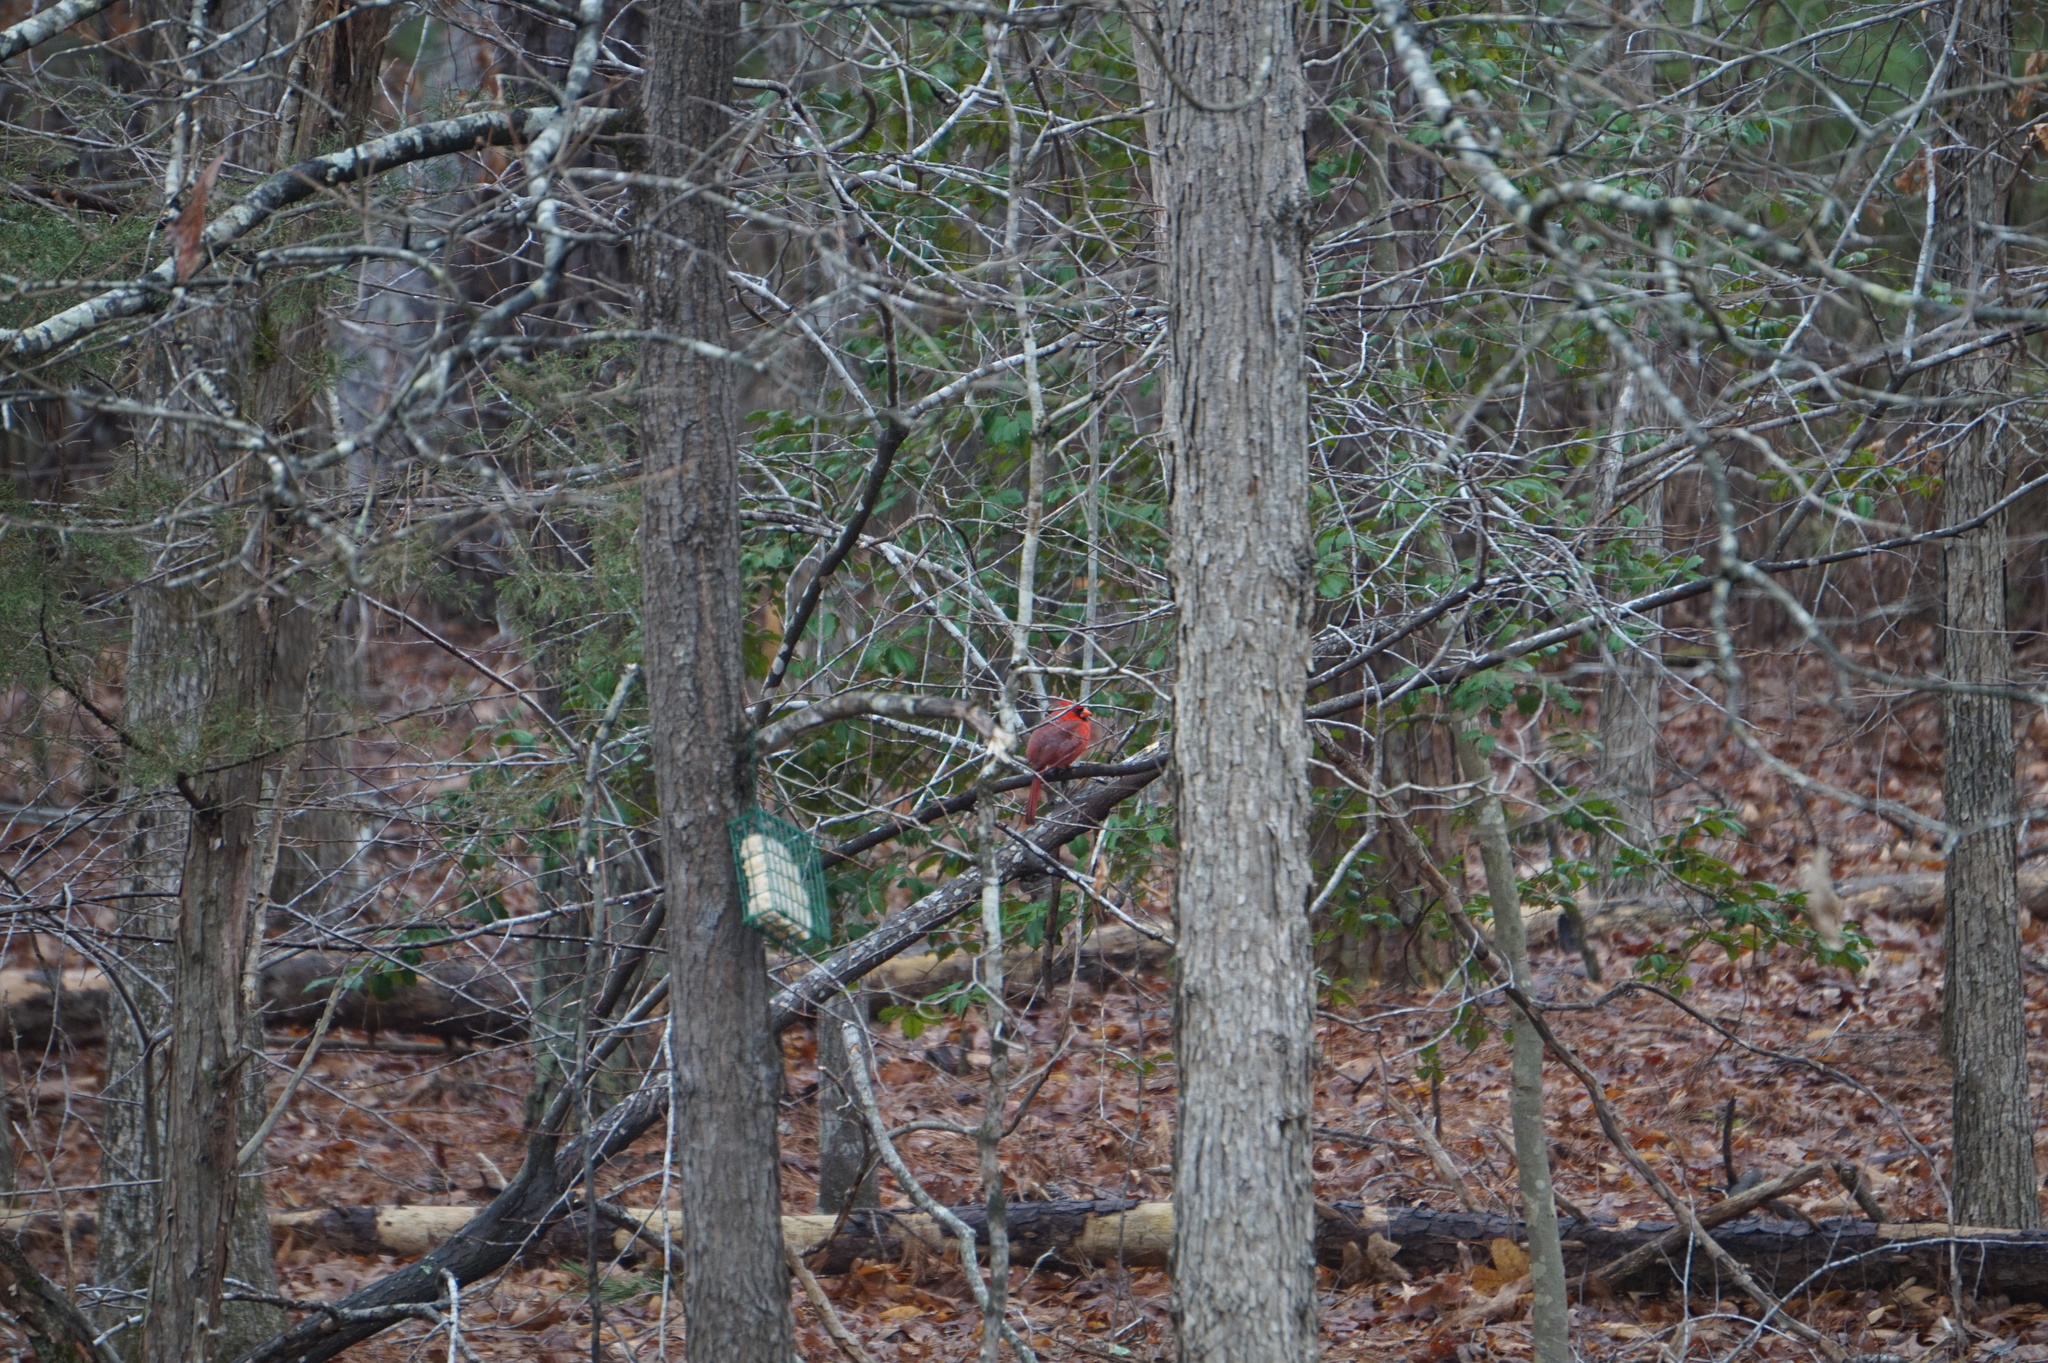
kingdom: Animalia
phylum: Chordata
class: Aves
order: Passeriformes
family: Cardinalidae
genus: Cardinalis
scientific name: Cardinalis cardinalis
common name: Northern cardinal
